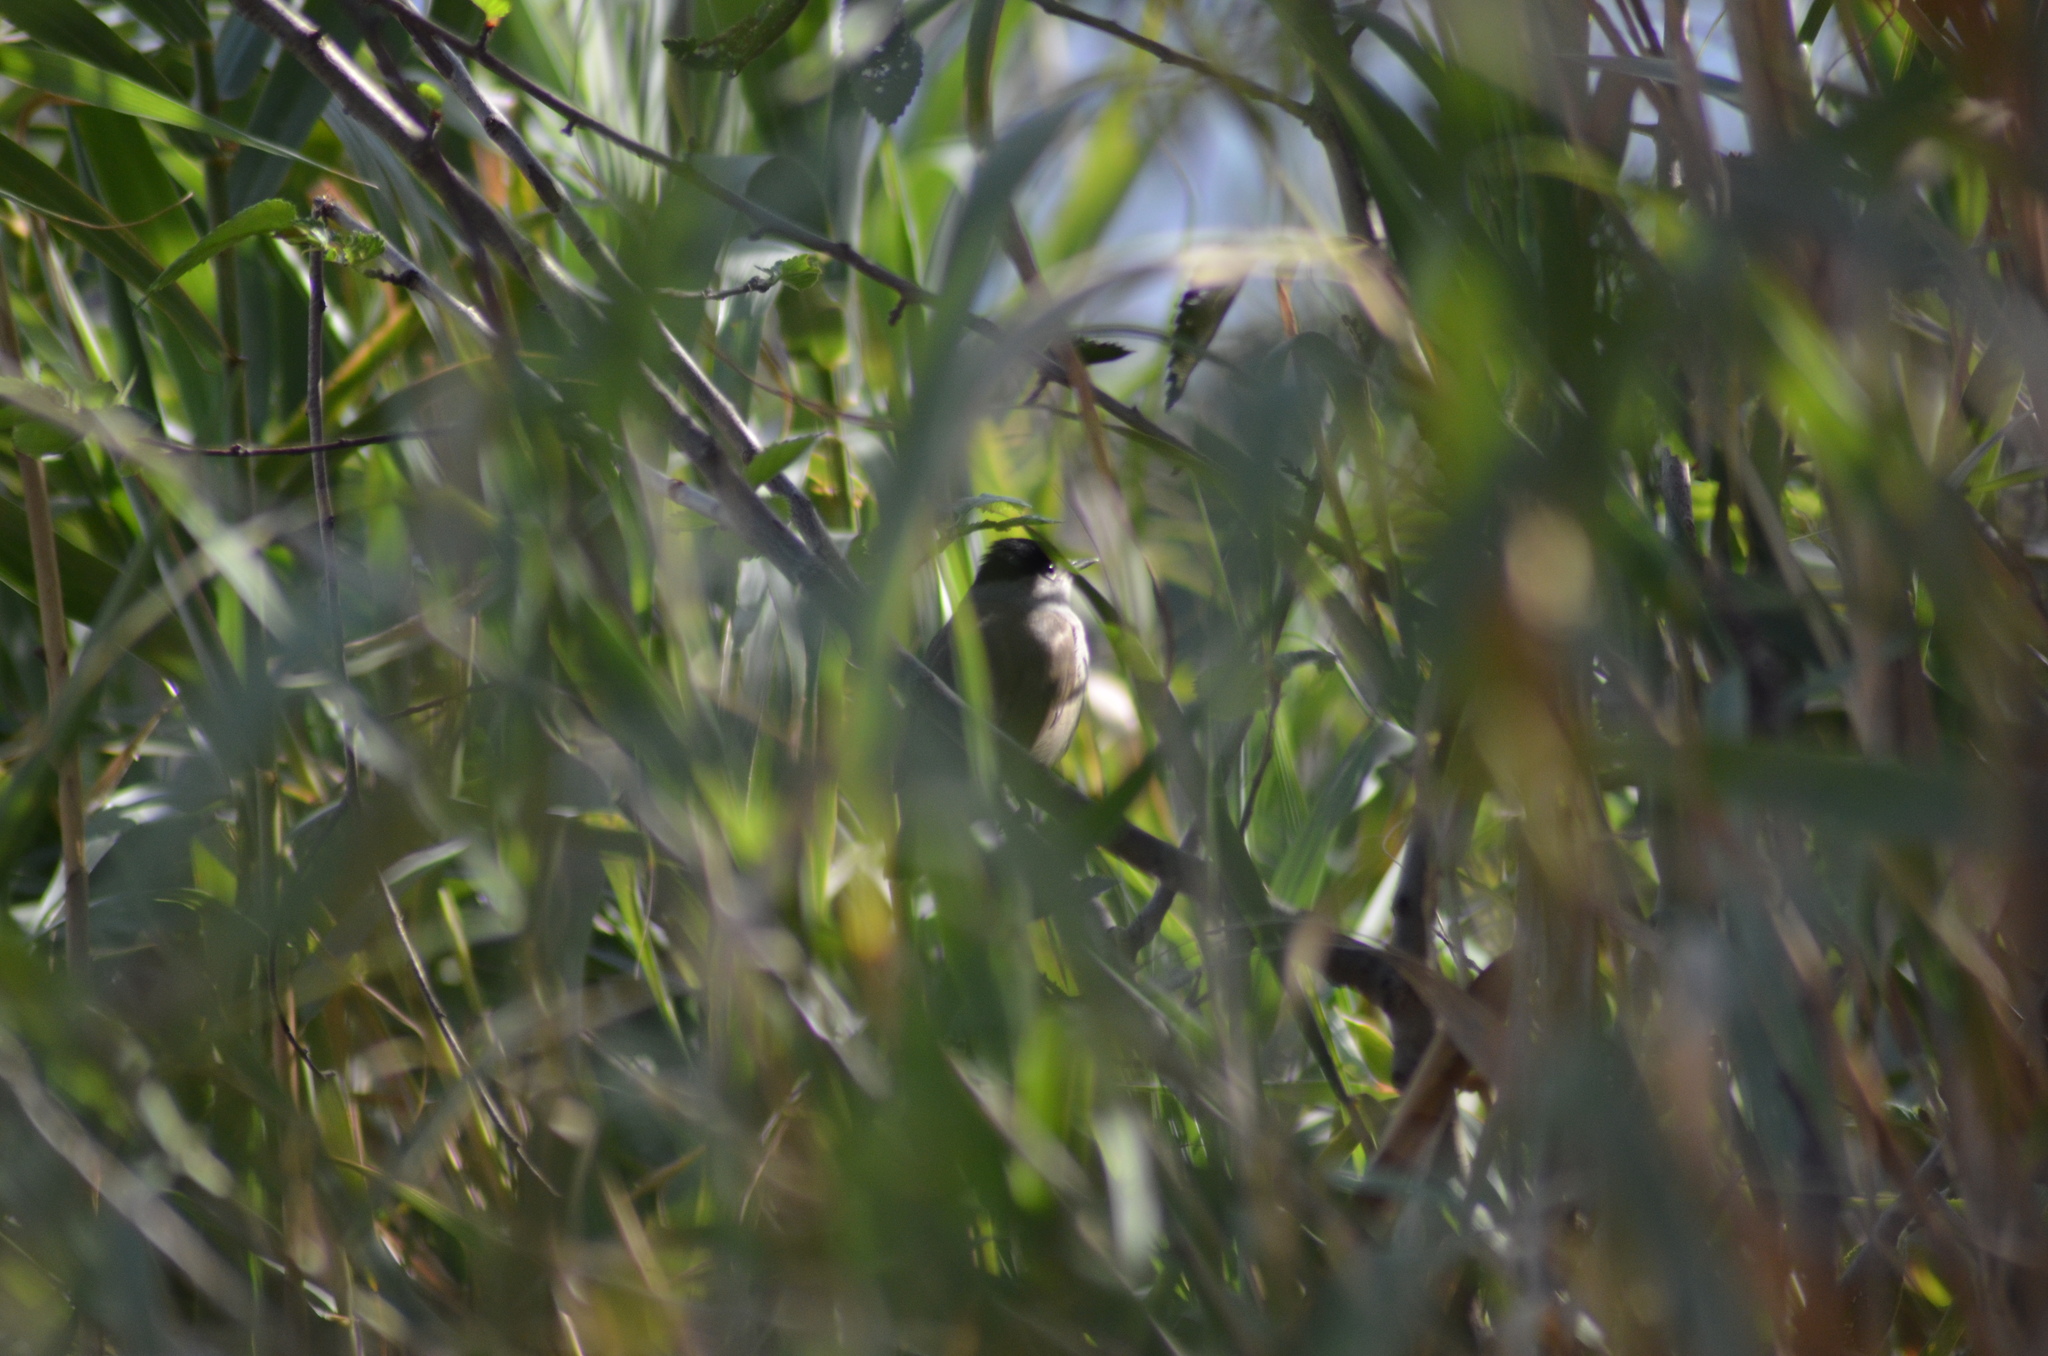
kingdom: Animalia
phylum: Chordata
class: Aves
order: Passeriformes
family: Sylviidae
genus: Sylvia
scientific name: Sylvia atricapilla
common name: Eurasian blackcap
